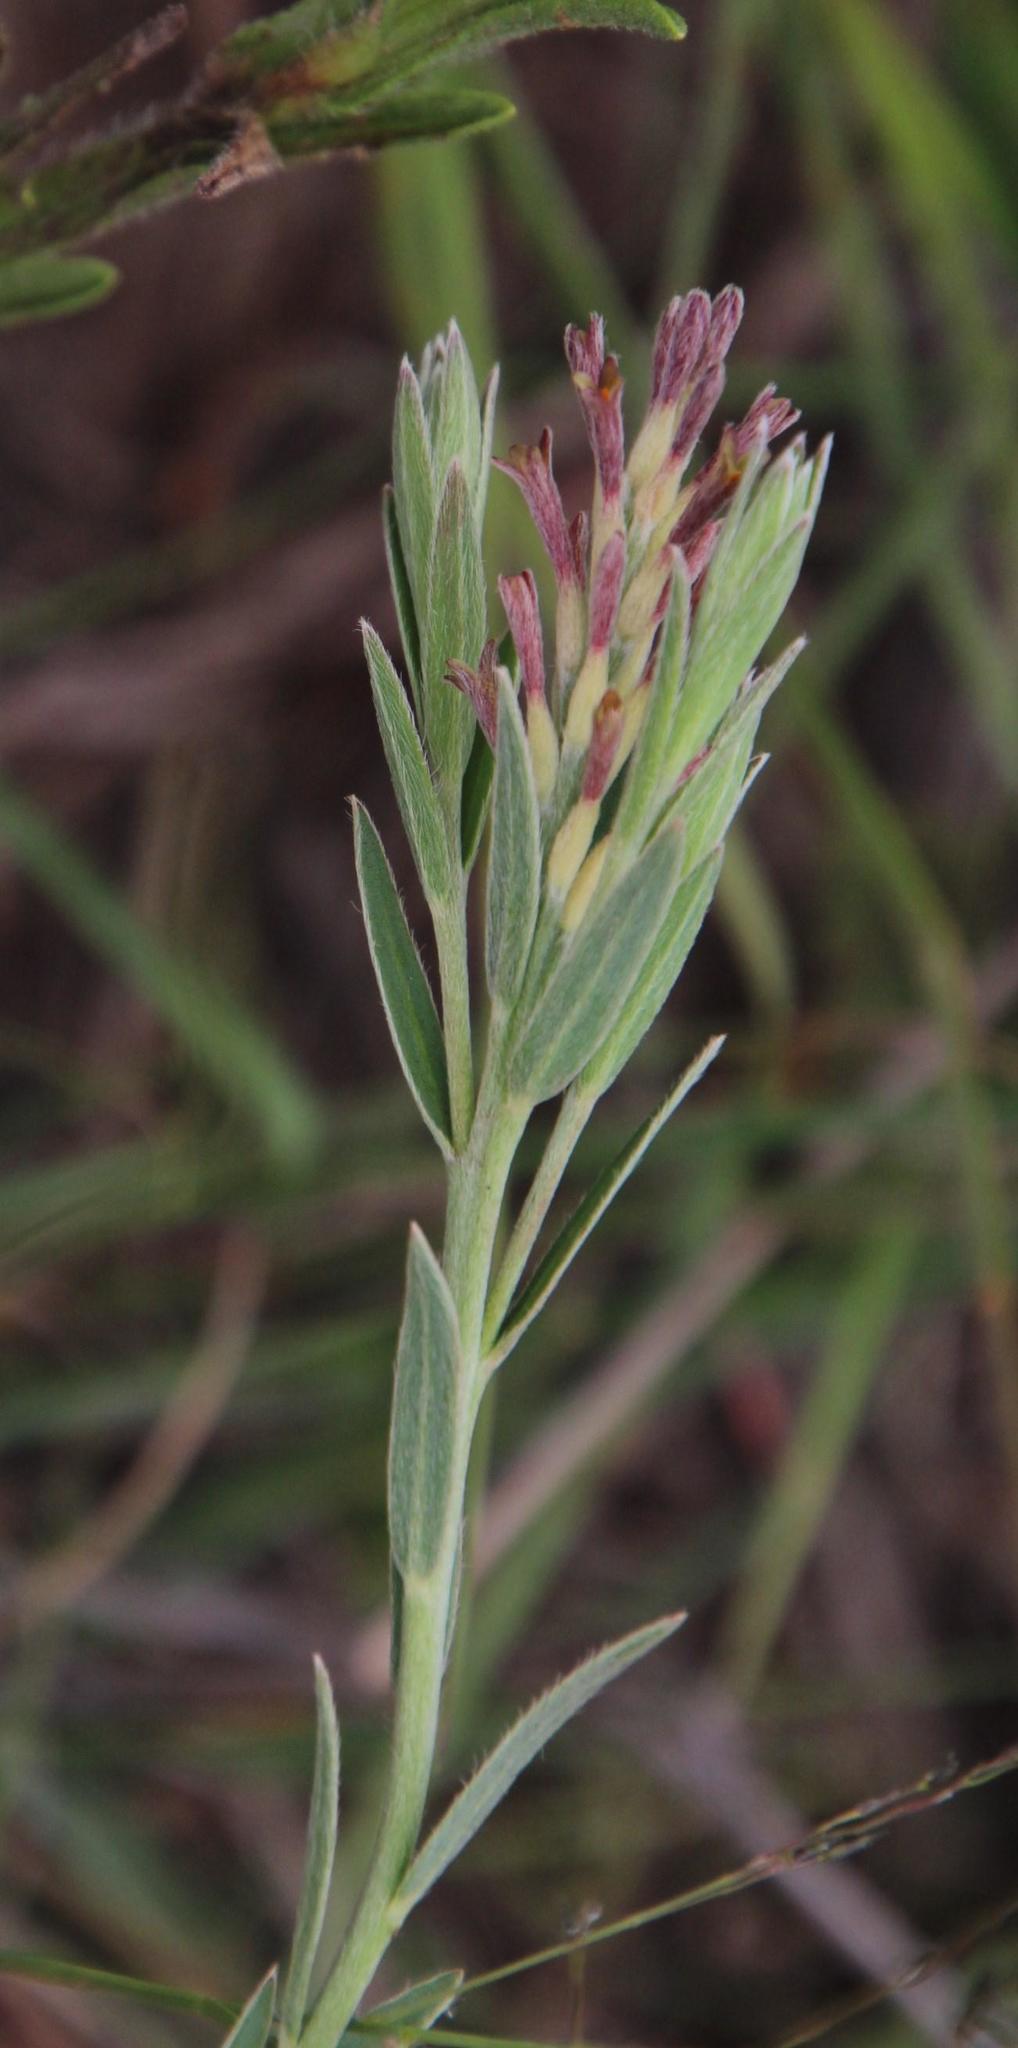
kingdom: Plantae
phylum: Tracheophyta
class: Magnoliopsida
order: Malvales
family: Thymelaeaceae
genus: Gnidia
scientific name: Gnidia gymnostachya
